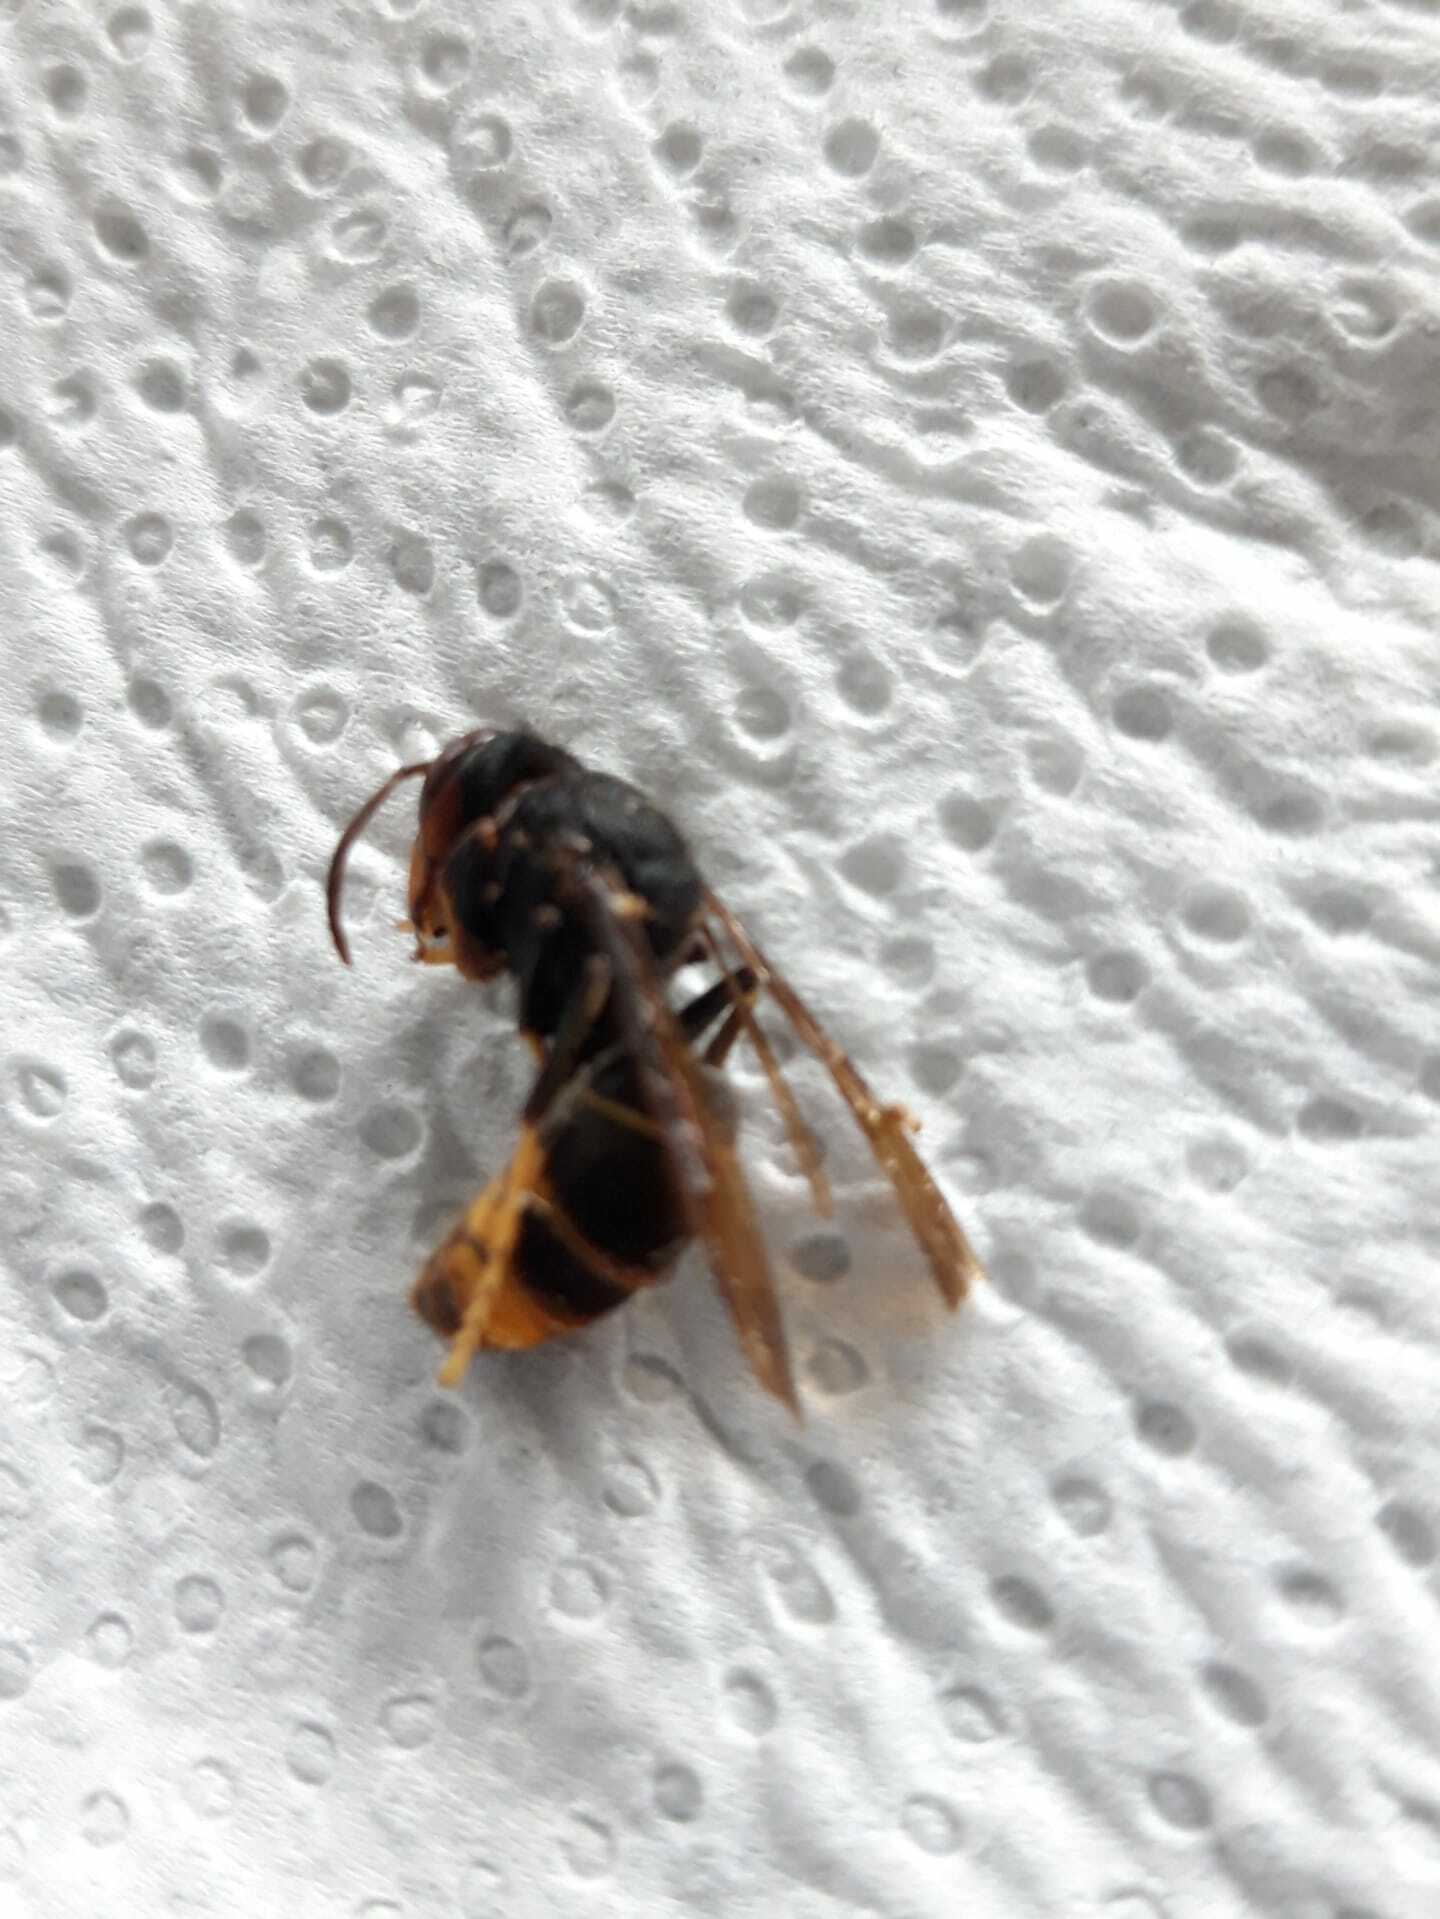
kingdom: Animalia
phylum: Arthropoda
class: Insecta
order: Hymenoptera
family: Vespidae
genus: Vespa
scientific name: Vespa velutina
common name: Asian hornet
